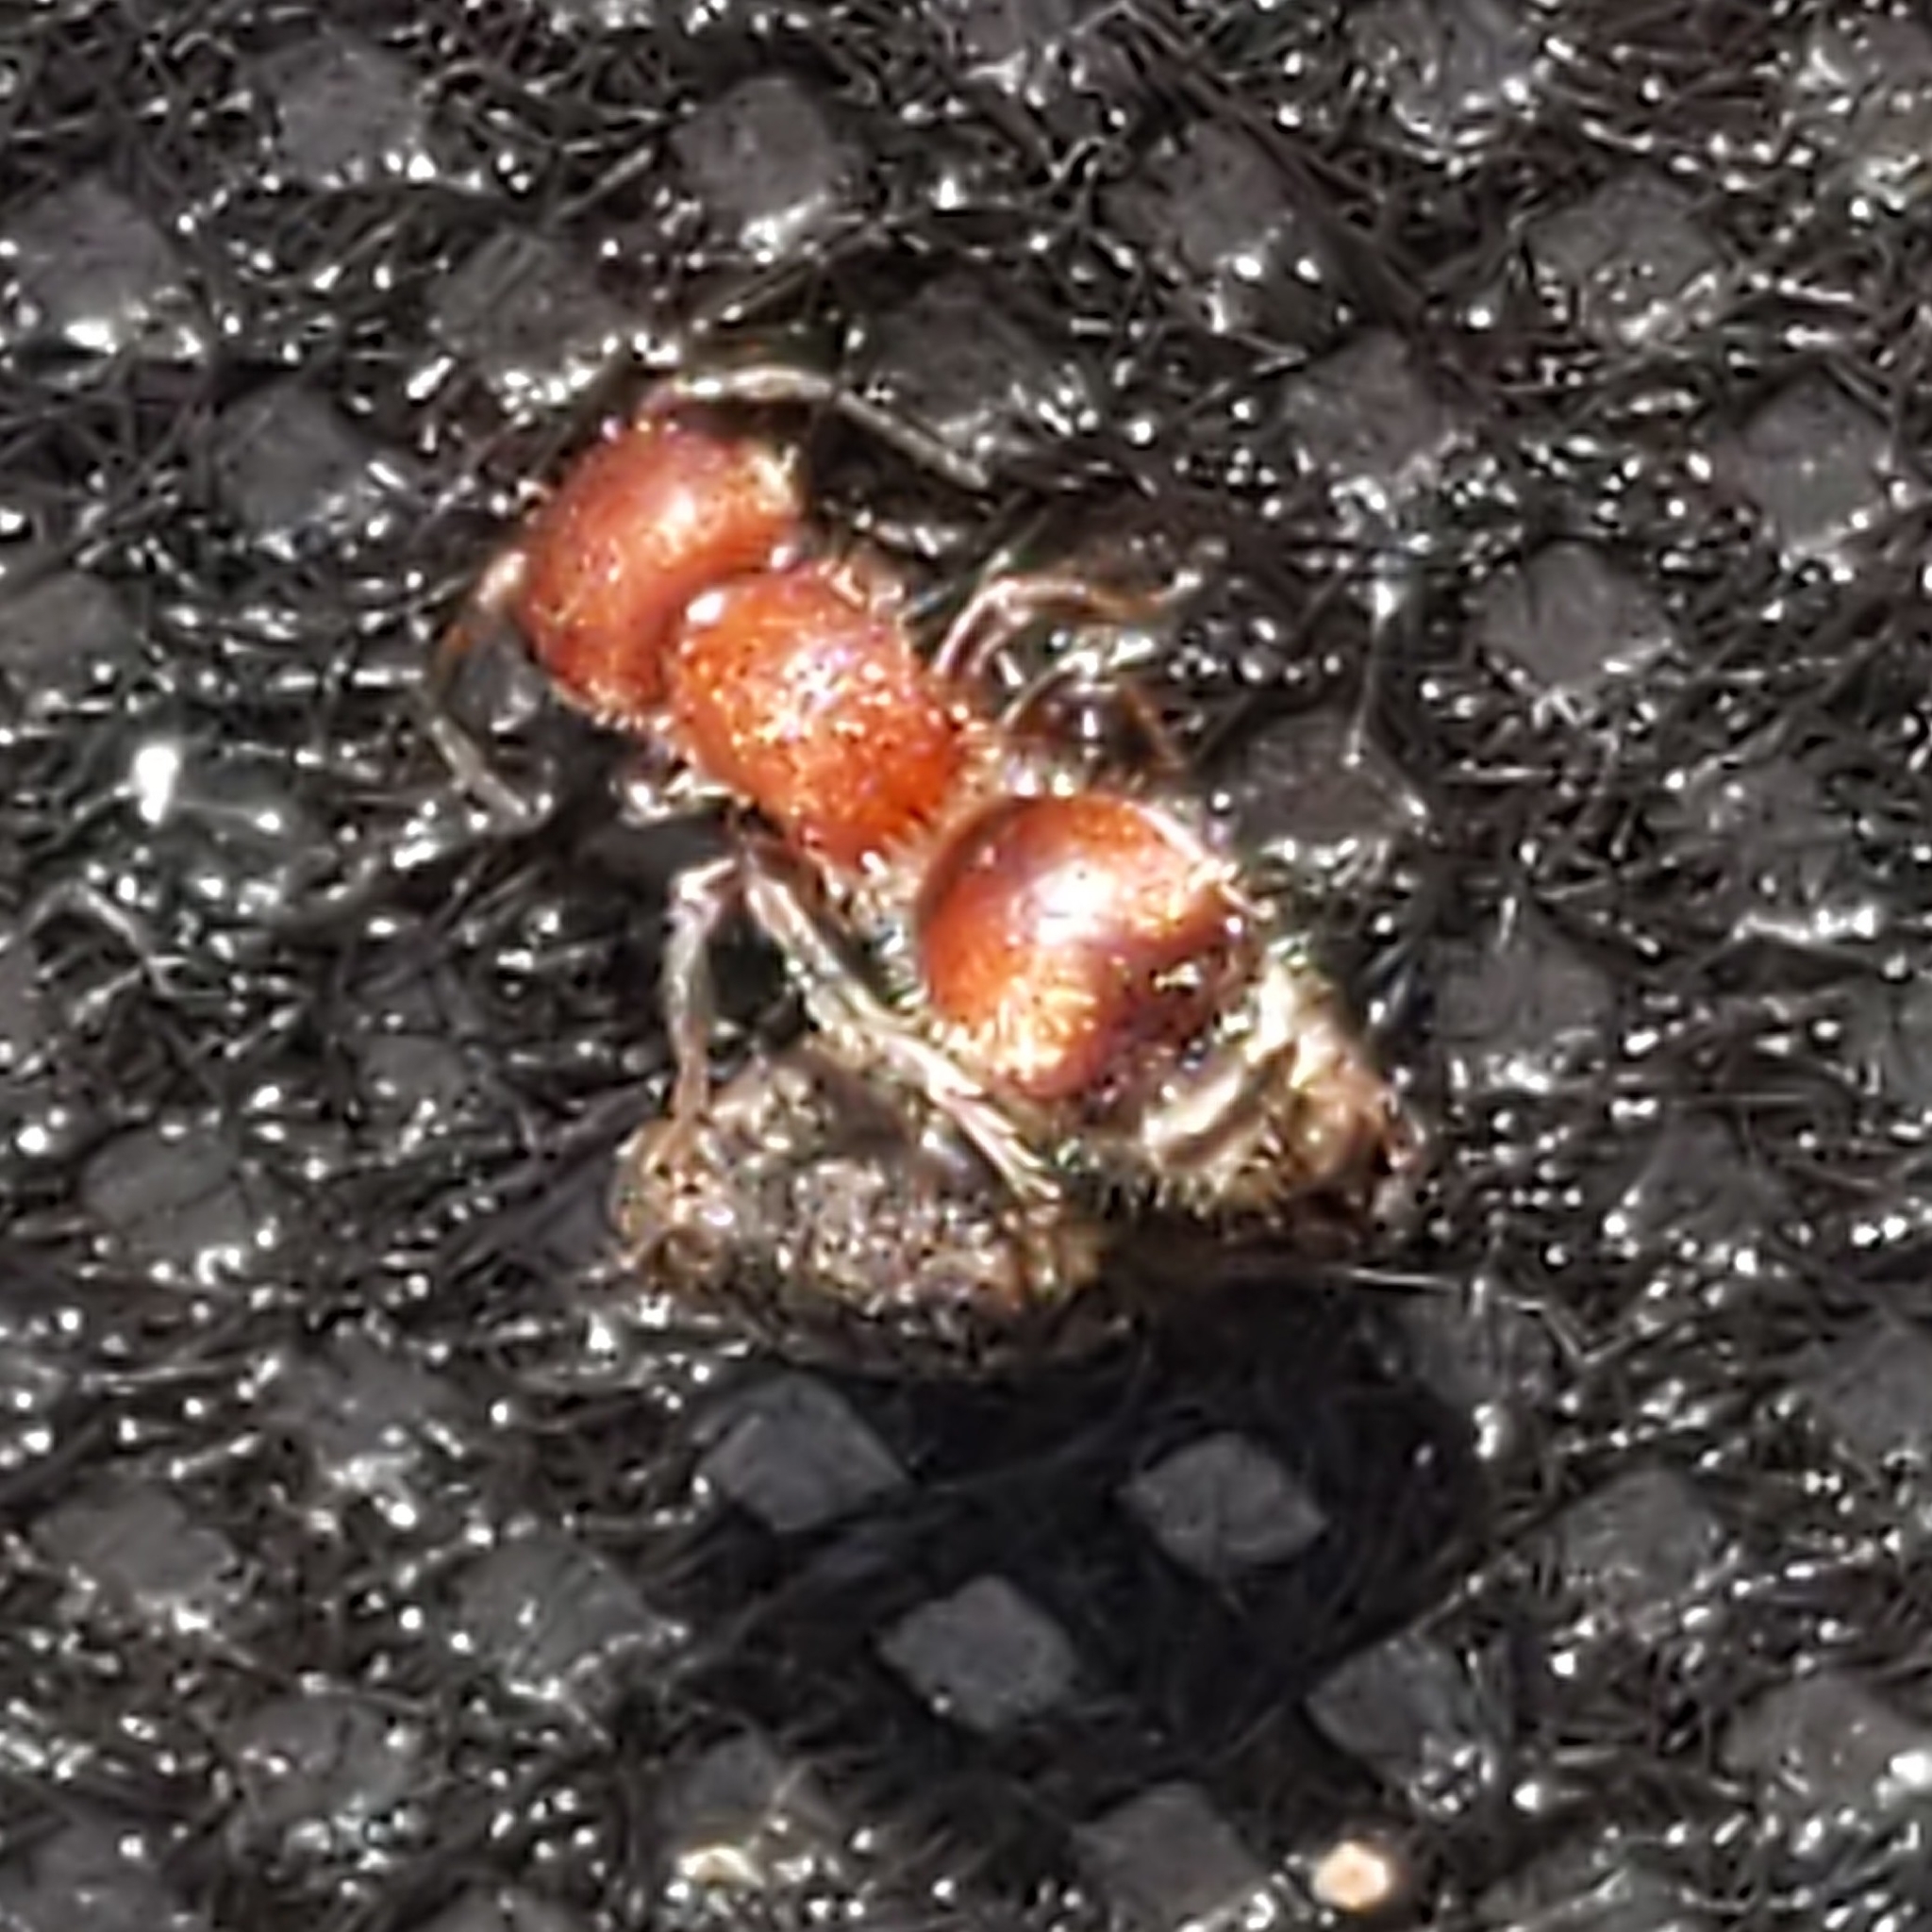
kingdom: Animalia
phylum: Arthropoda
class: Insecta
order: Hymenoptera
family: Mutillidae
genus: Pseudomethoca
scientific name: Pseudomethoca
